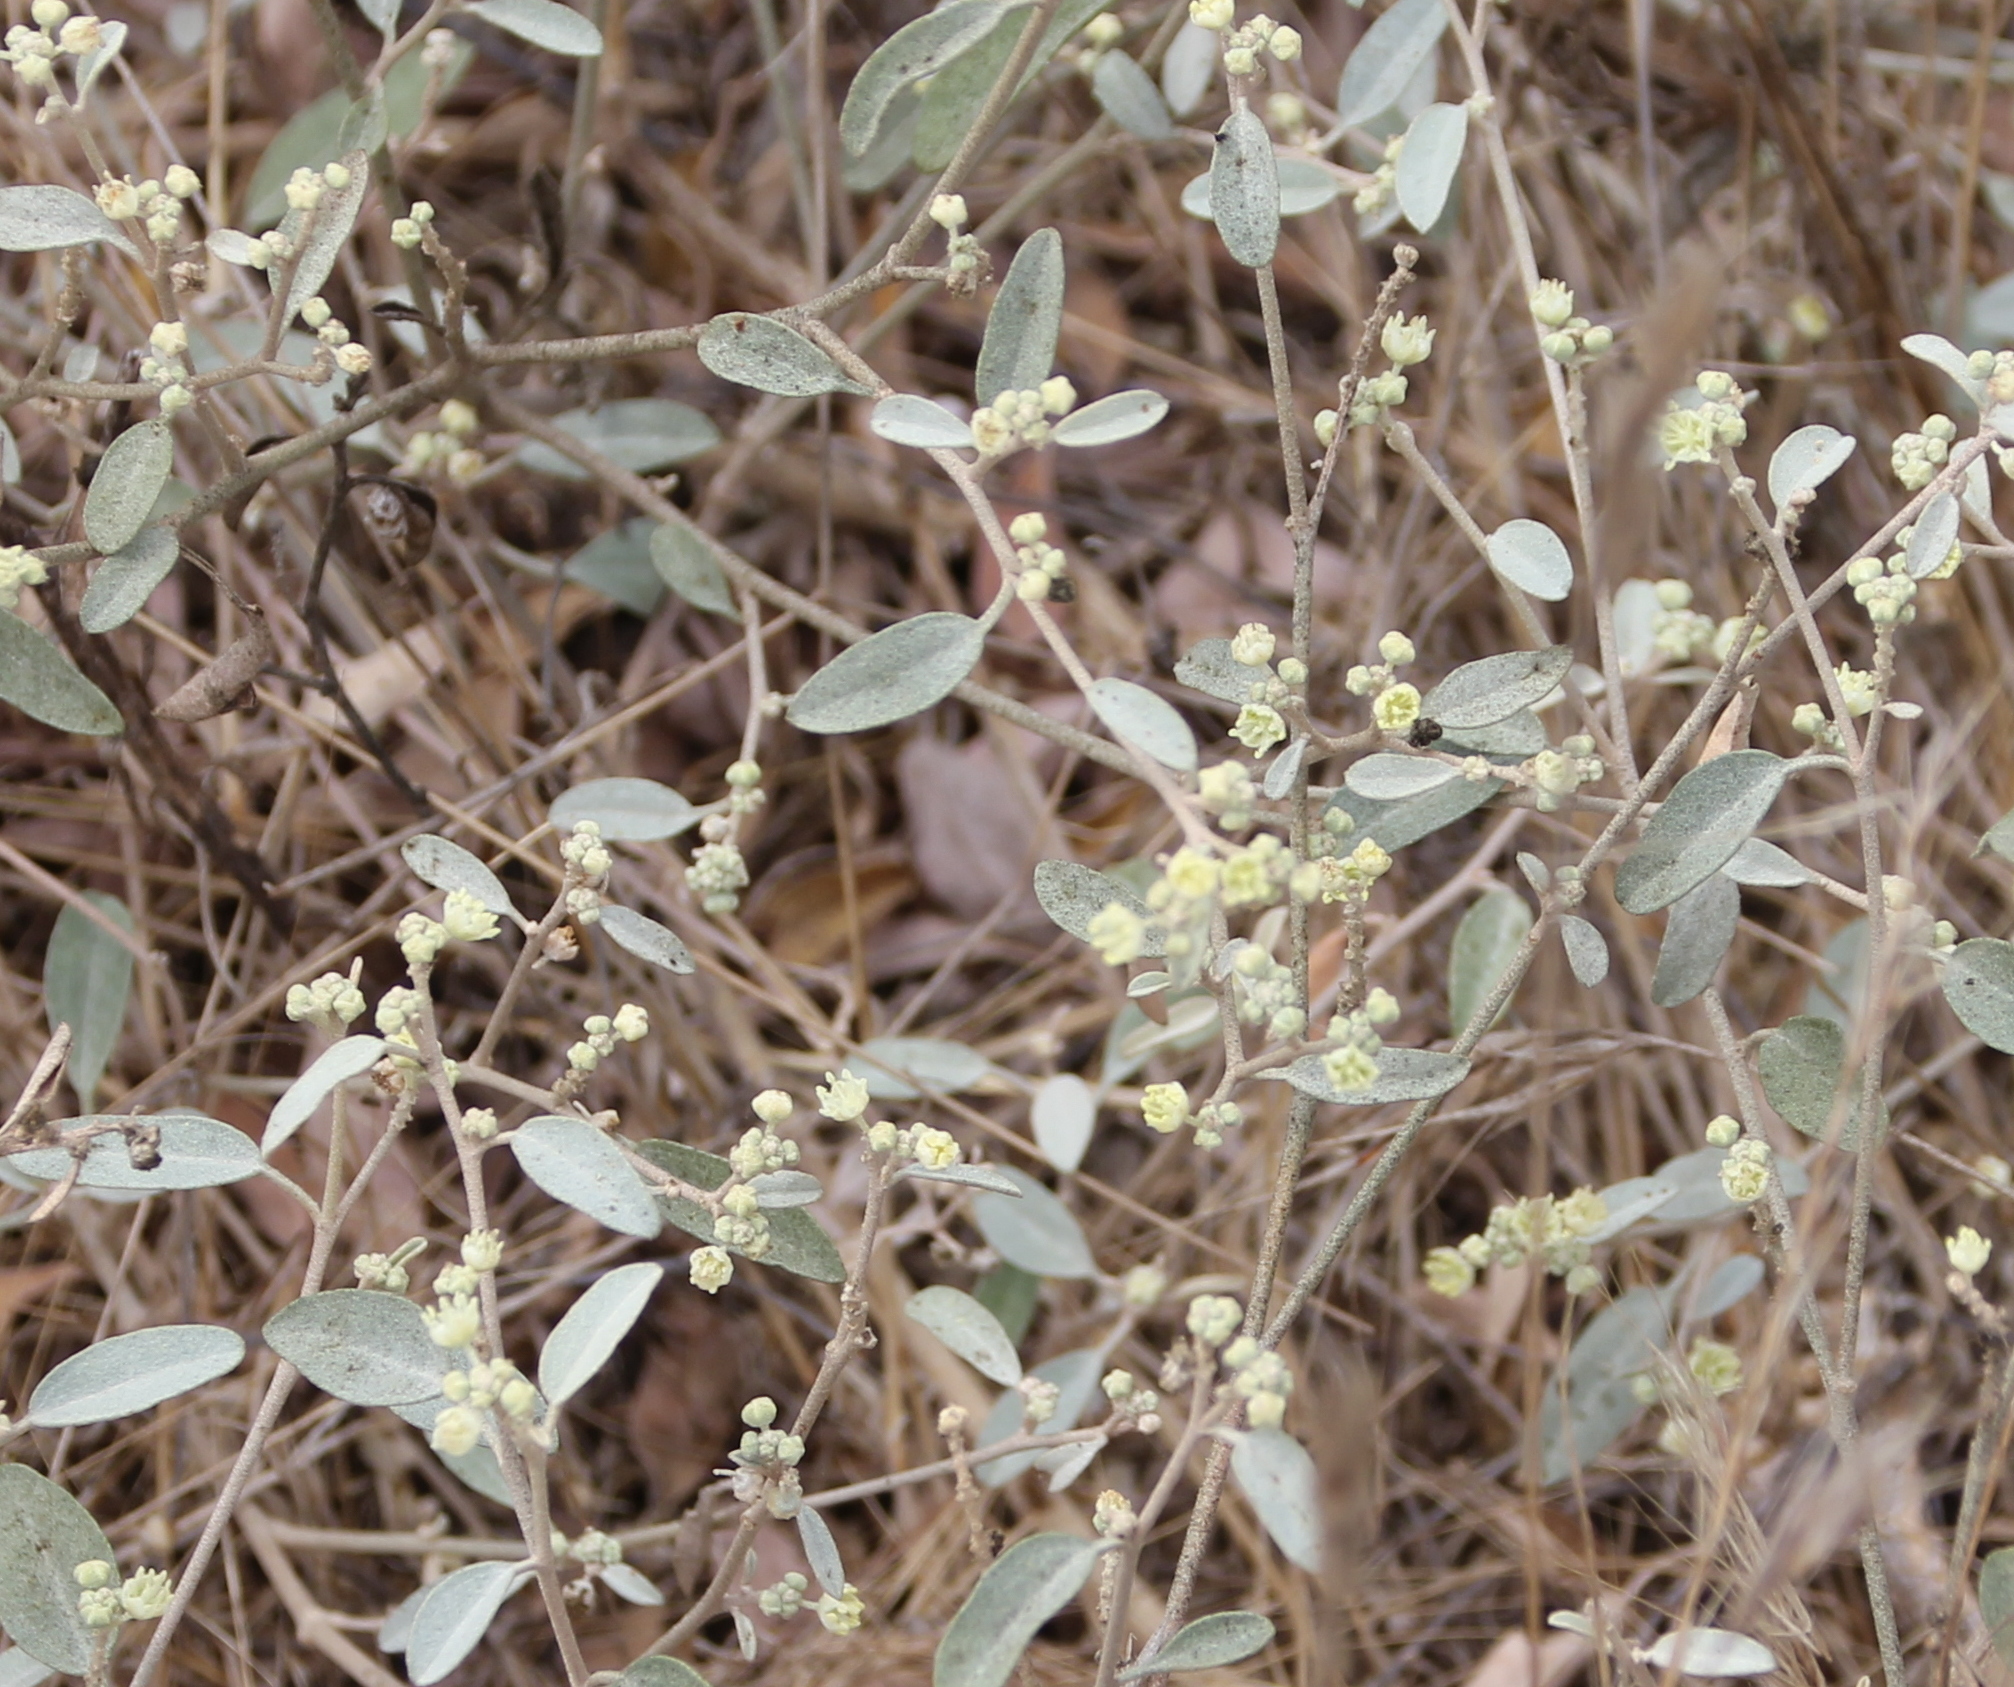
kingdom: Plantae
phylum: Tracheophyta
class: Magnoliopsida
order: Malpighiales
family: Euphorbiaceae
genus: Croton
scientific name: Croton californicus
